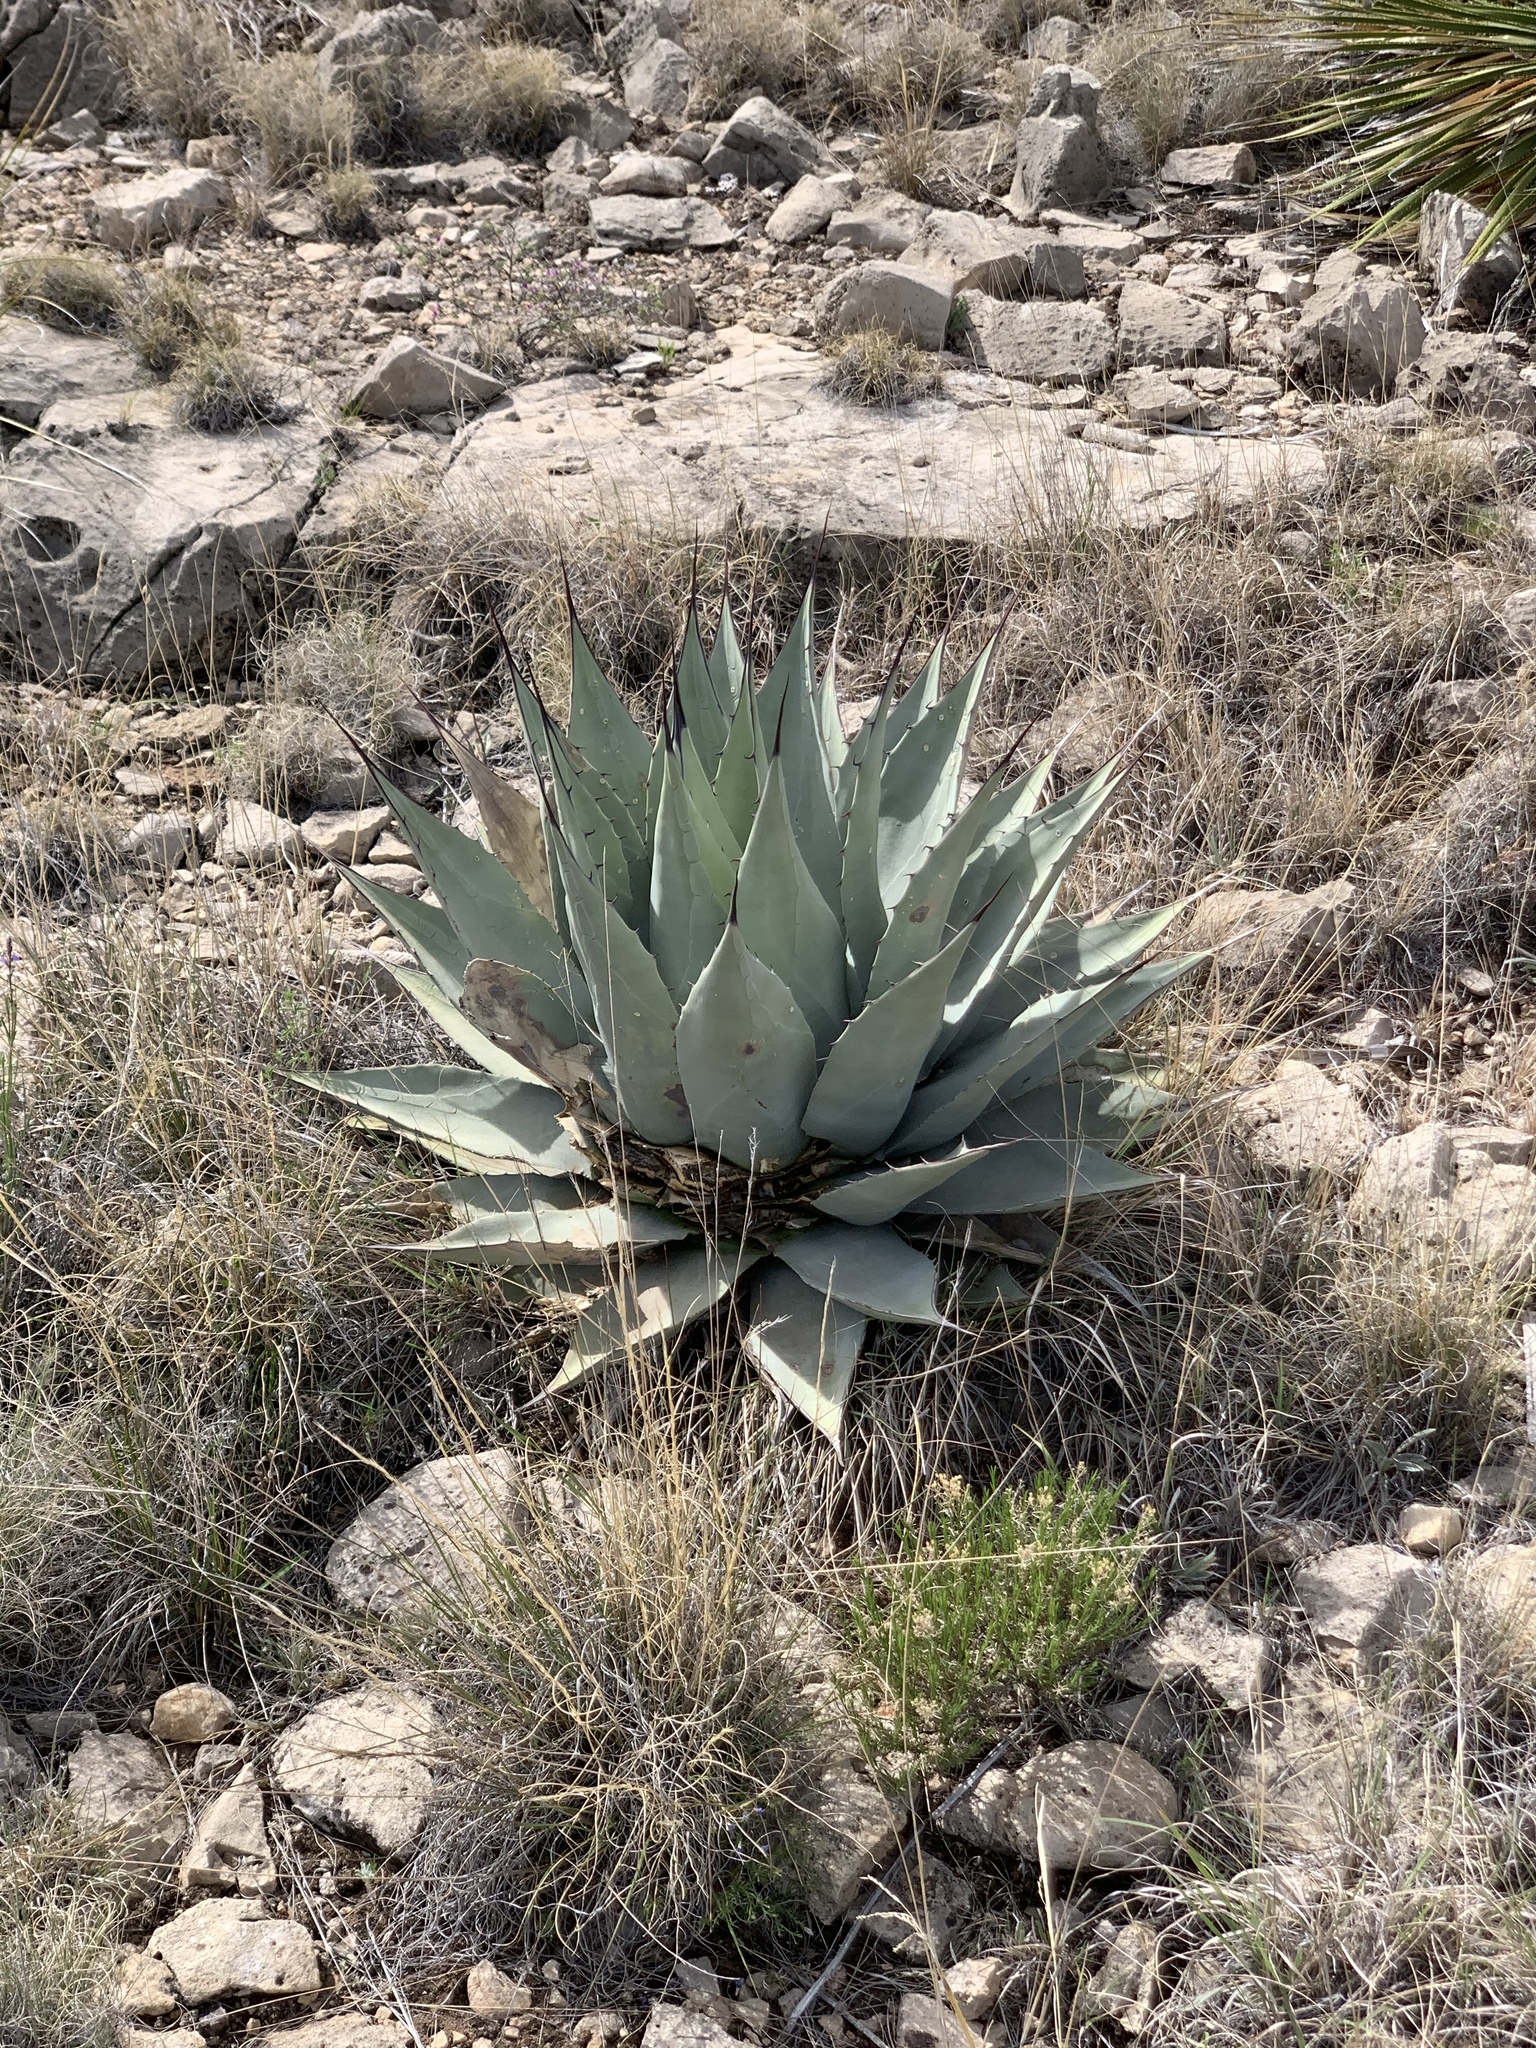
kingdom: Plantae
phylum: Tracheophyta
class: Liliopsida
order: Asparagales
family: Asparagaceae
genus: Agave
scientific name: Agave parryi
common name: Parry's agave
